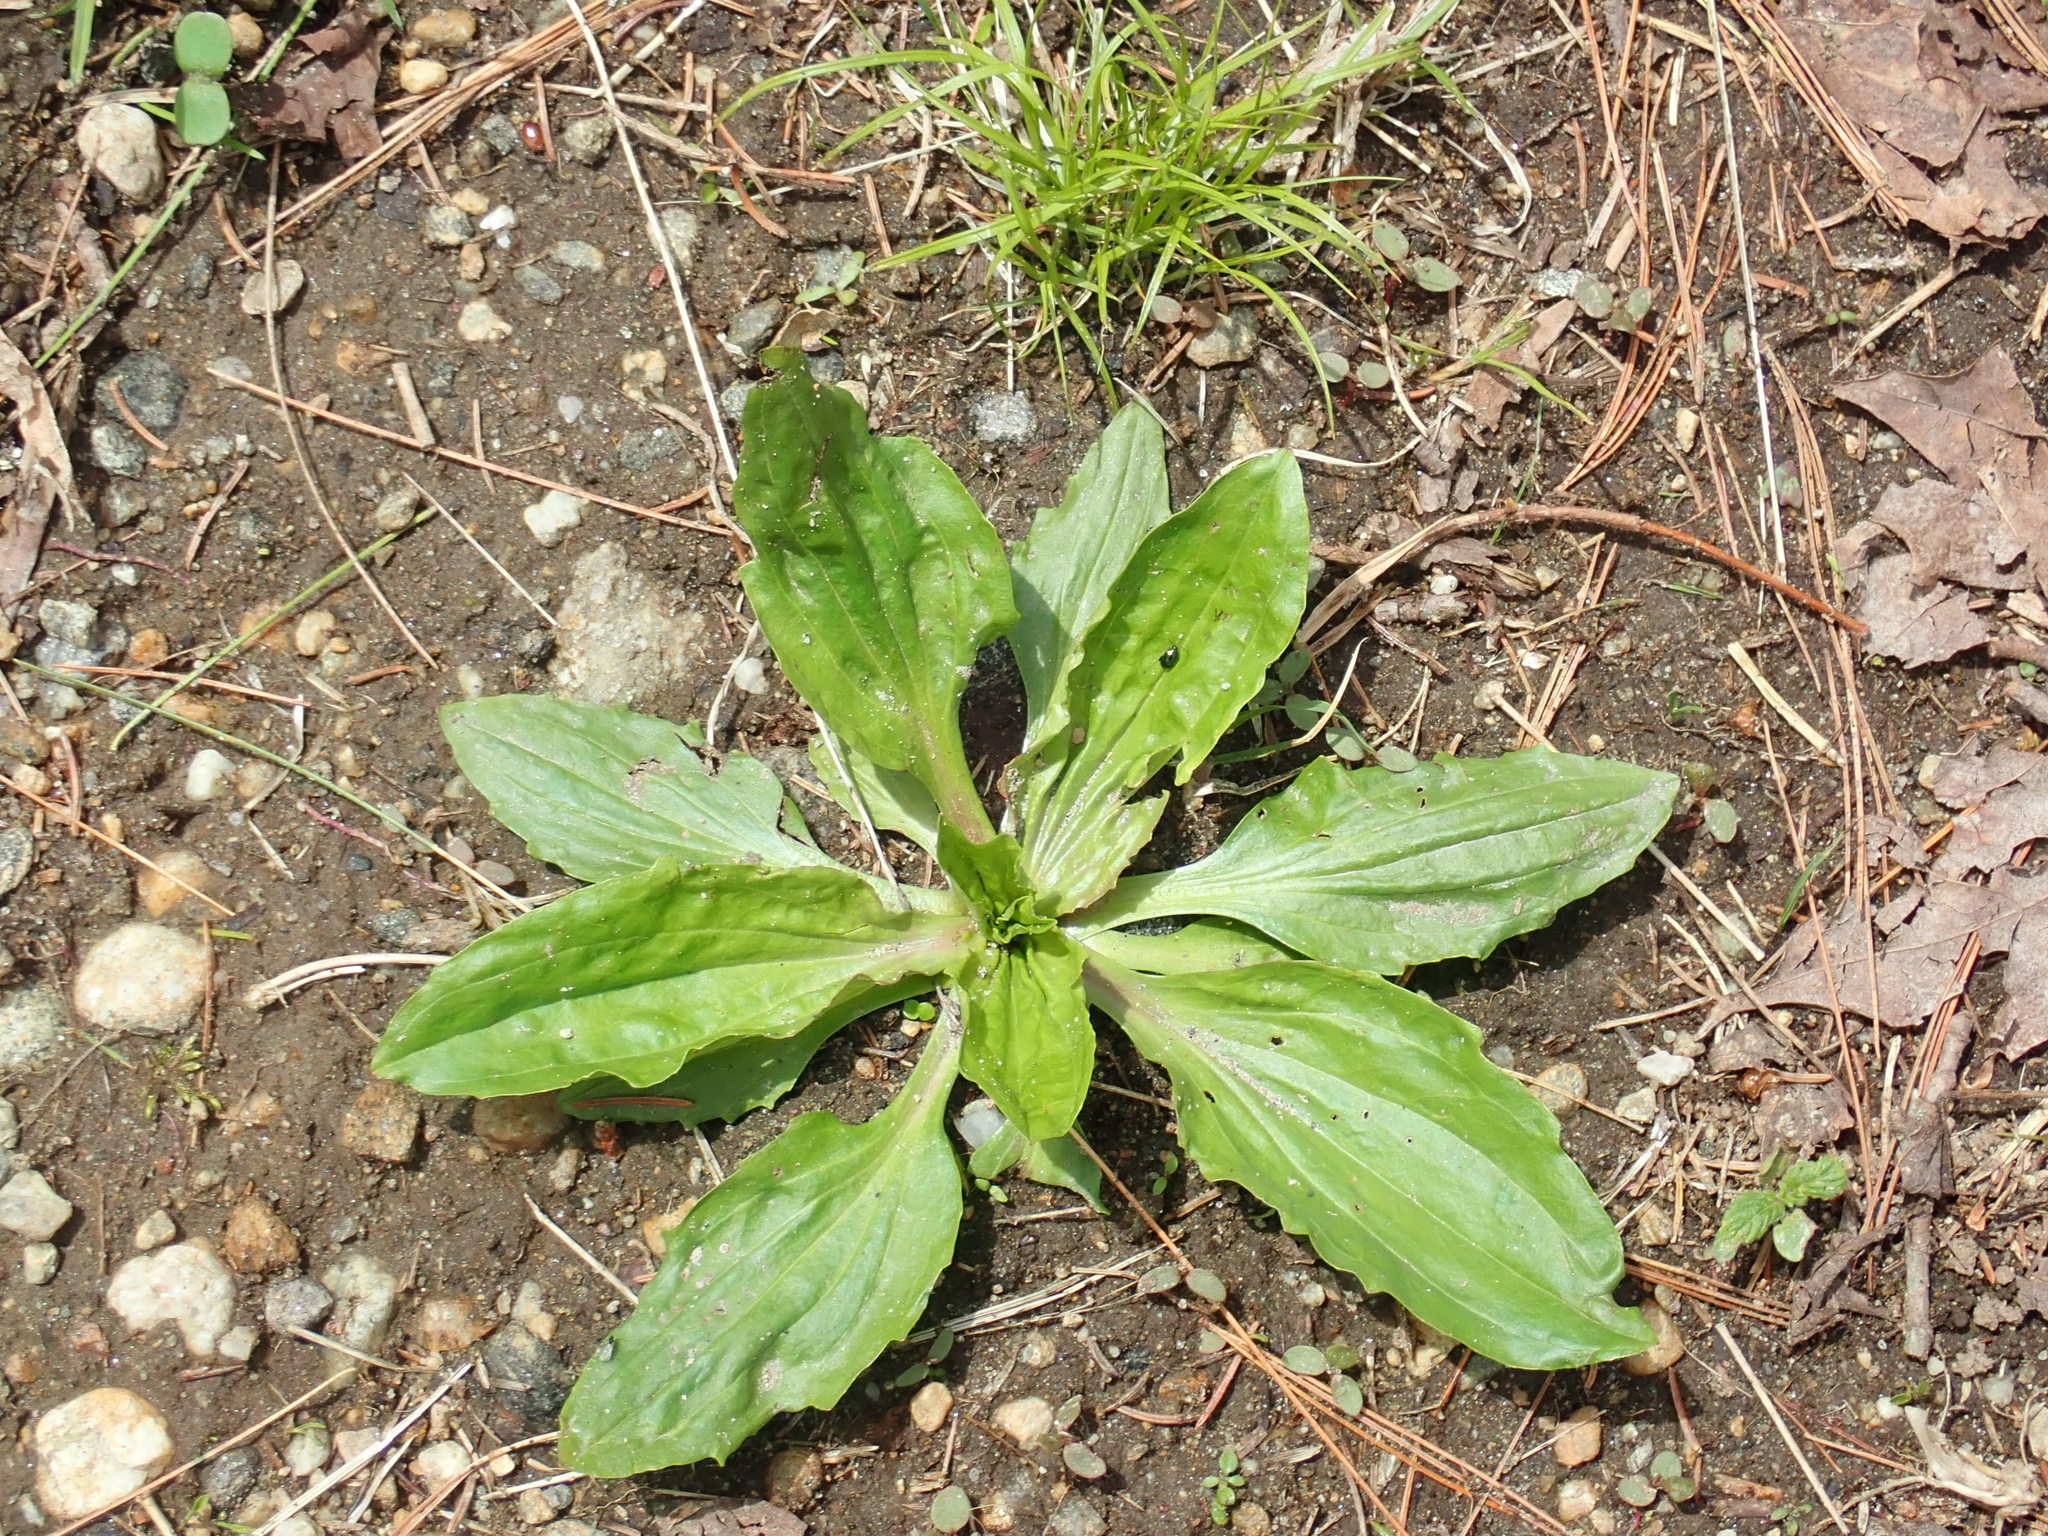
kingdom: Plantae
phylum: Tracheophyta
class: Magnoliopsida
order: Lamiales
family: Plantaginaceae
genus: Plantago
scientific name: Plantago major
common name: Common plantain
